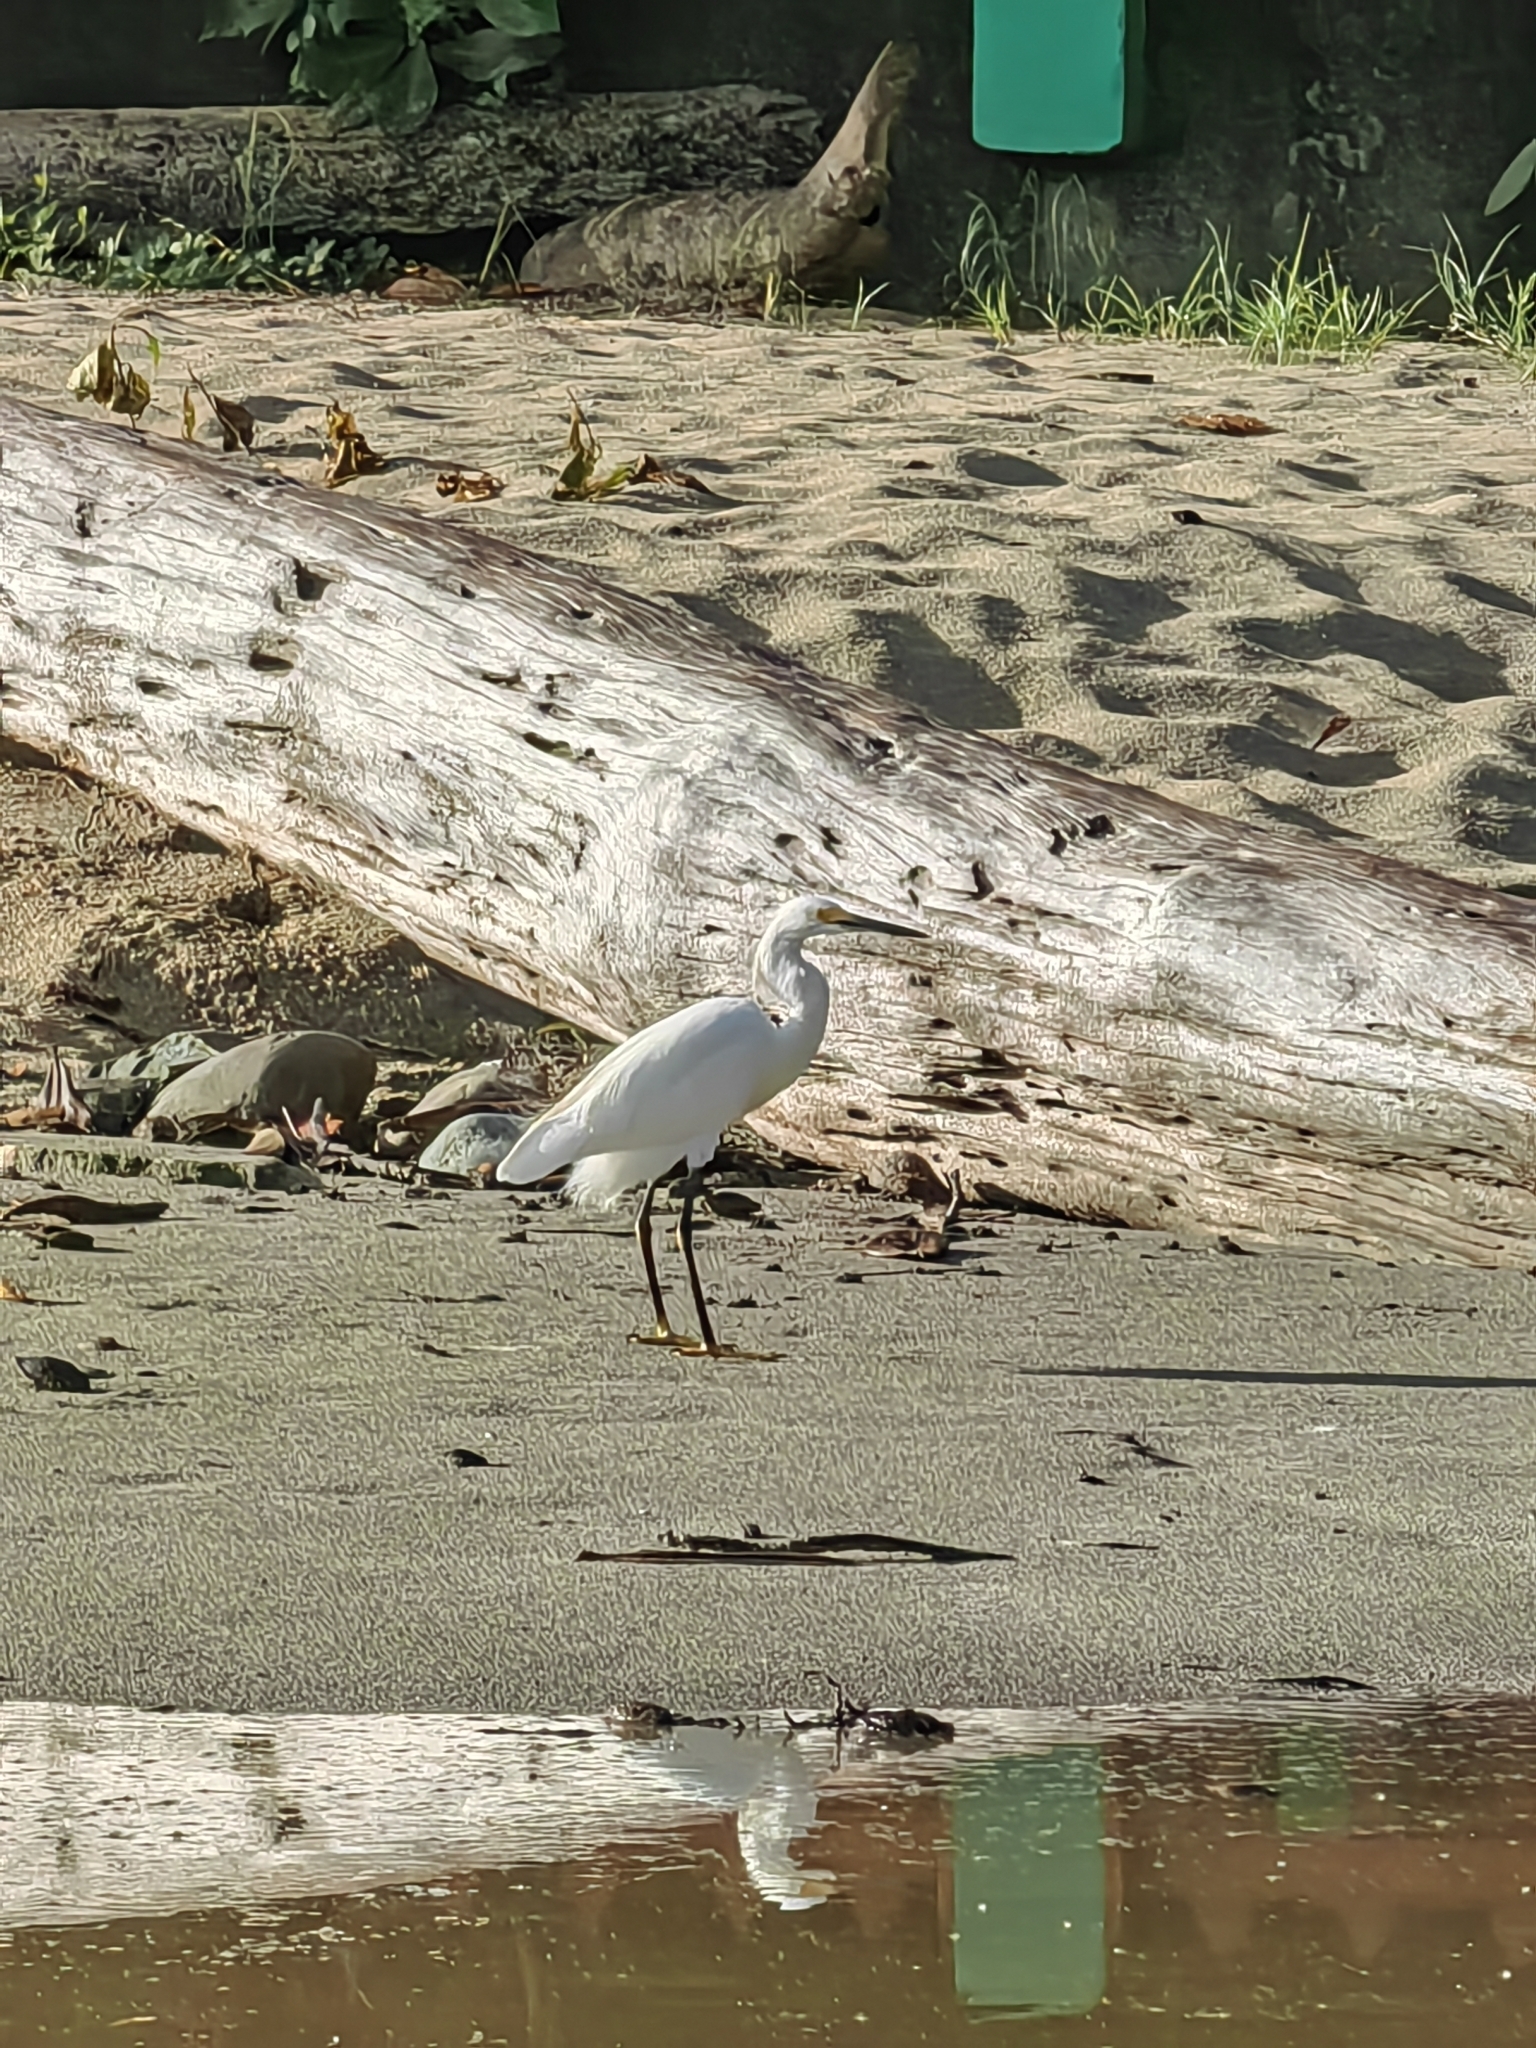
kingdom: Animalia
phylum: Chordata
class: Aves
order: Pelecaniformes
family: Ardeidae
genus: Egretta
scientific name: Egretta thula
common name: Snowy egret
